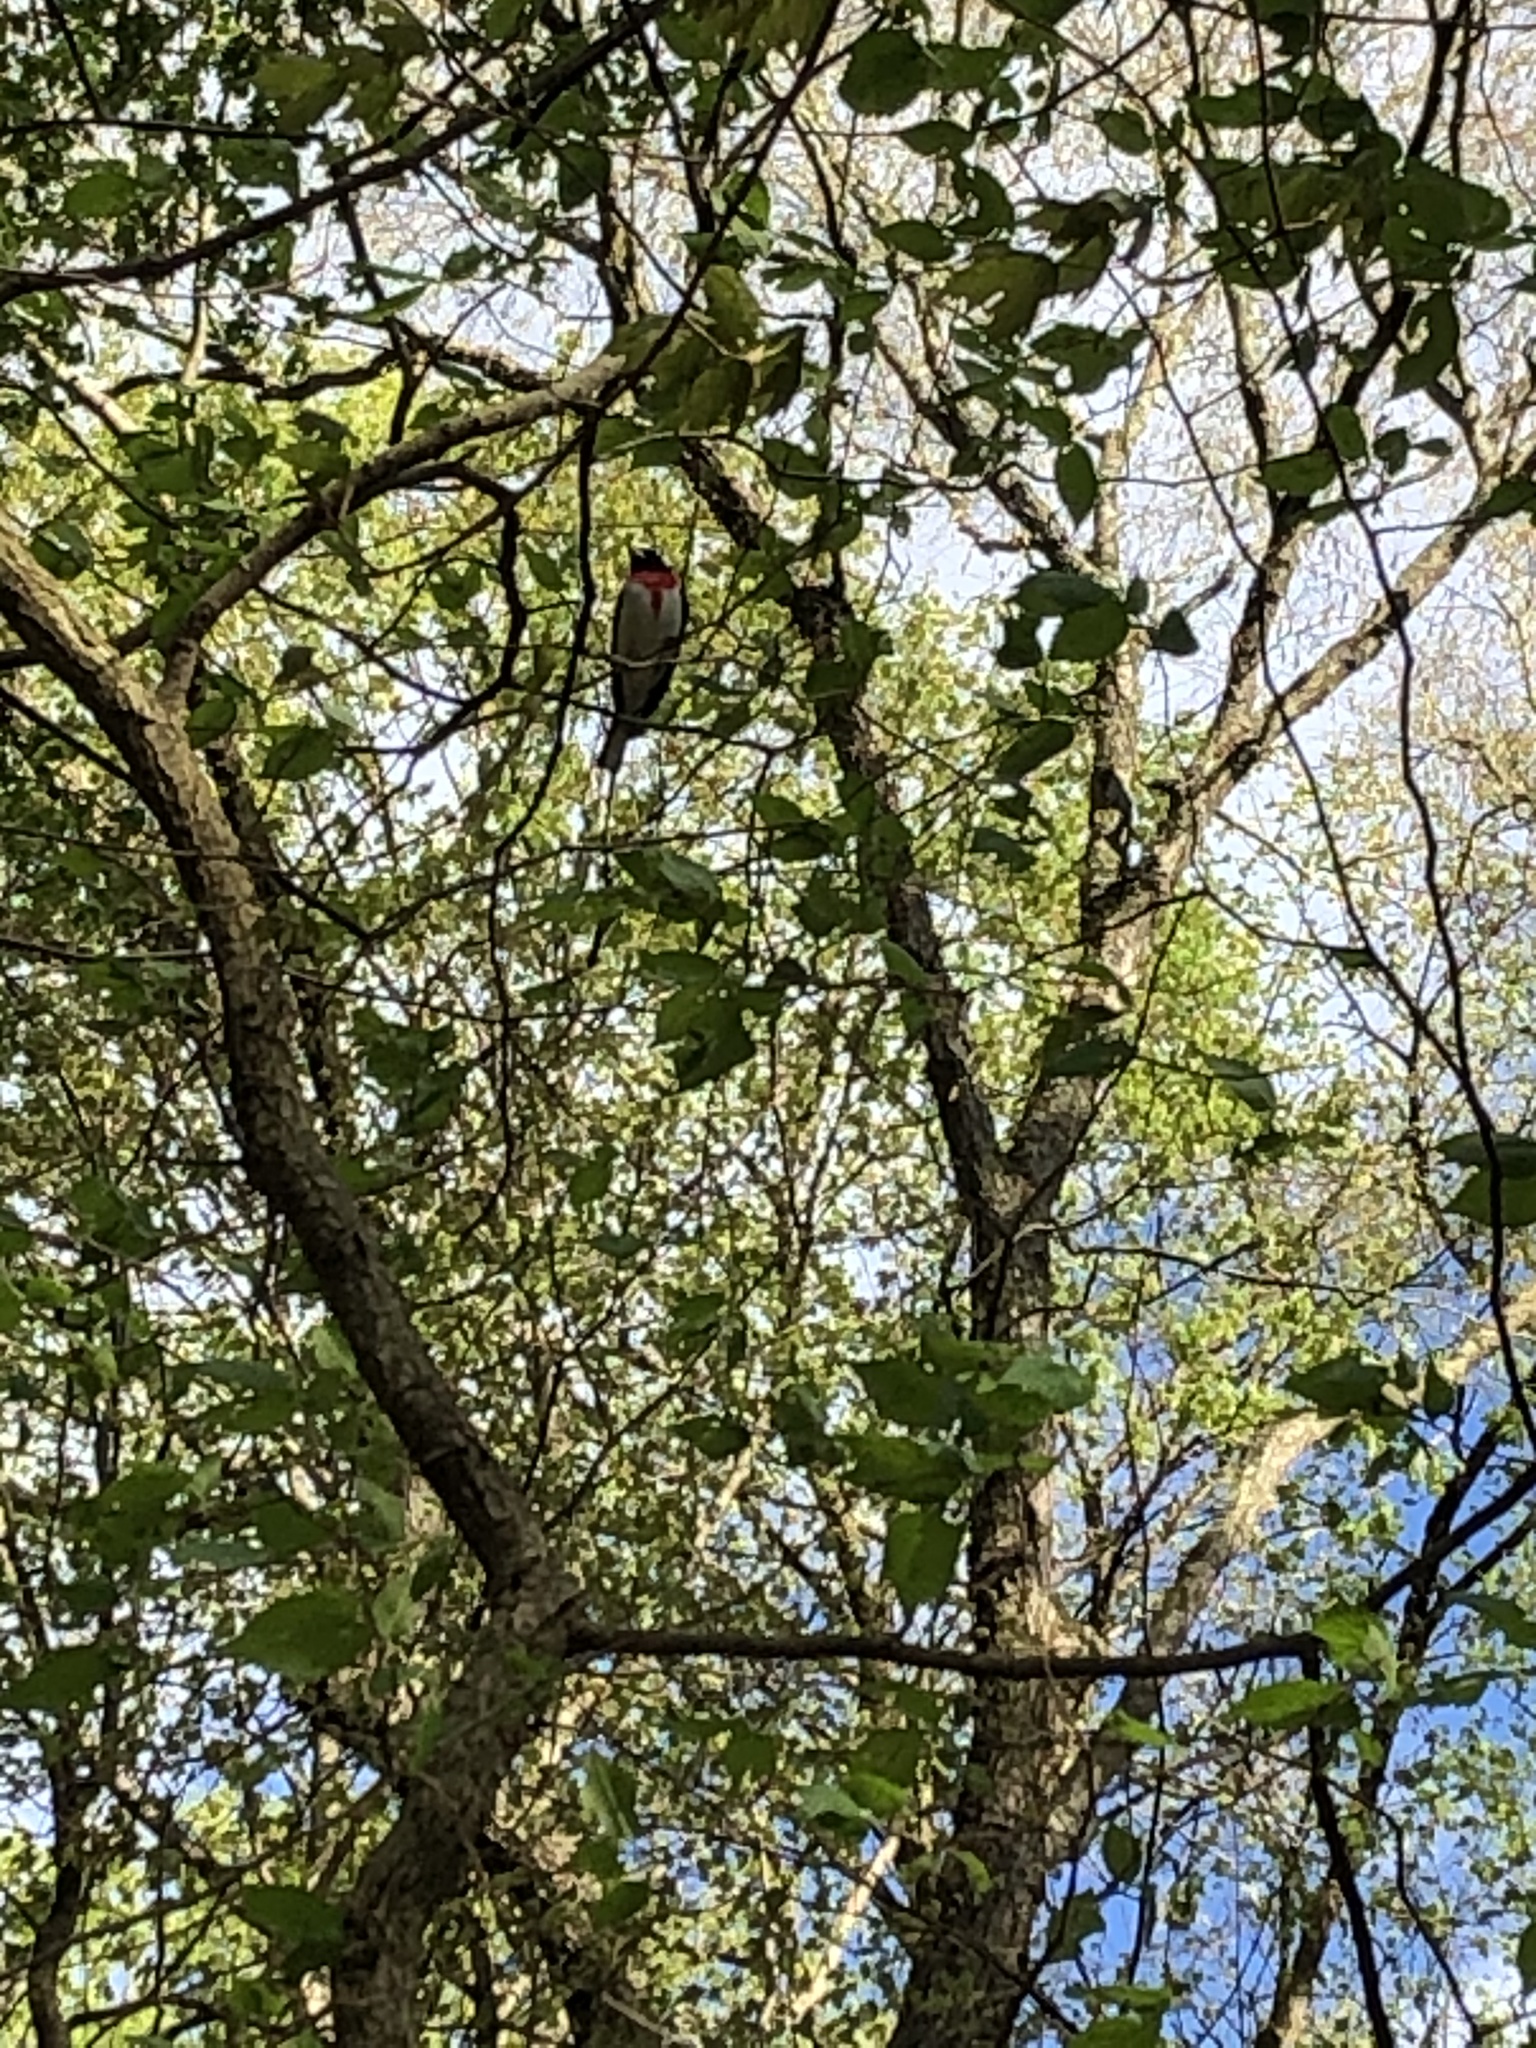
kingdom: Animalia
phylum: Chordata
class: Aves
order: Passeriformes
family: Cardinalidae
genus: Pheucticus
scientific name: Pheucticus ludovicianus
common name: Rose-breasted grosbeak
